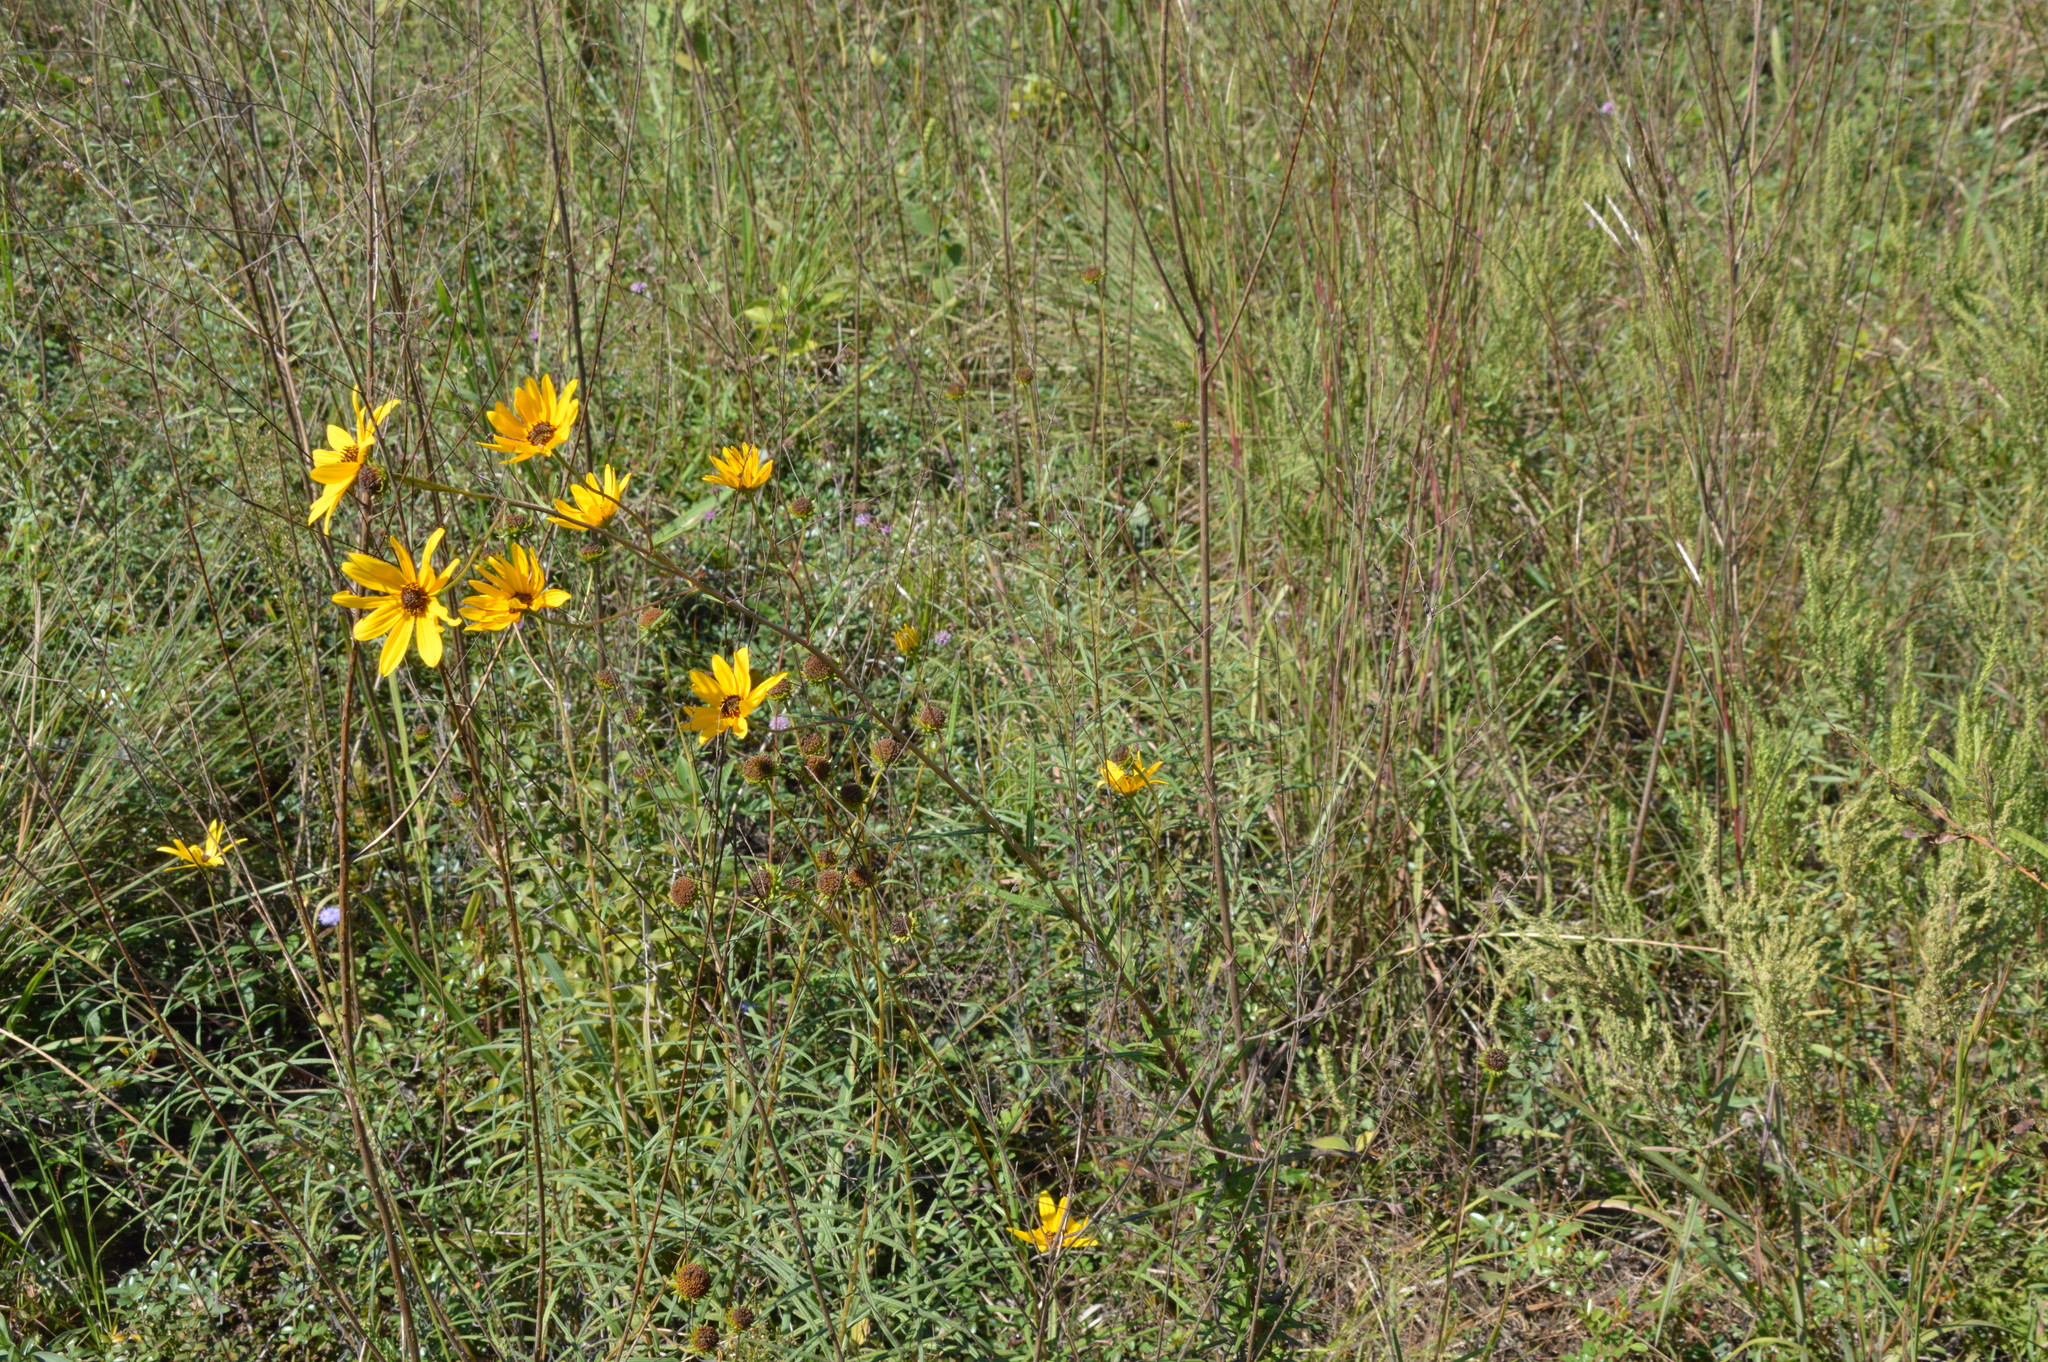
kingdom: Plantae
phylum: Tracheophyta
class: Magnoliopsida
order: Asterales
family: Asteraceae
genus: Helianthus
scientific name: Helianthus angustifolius
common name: Swamp sunflower
